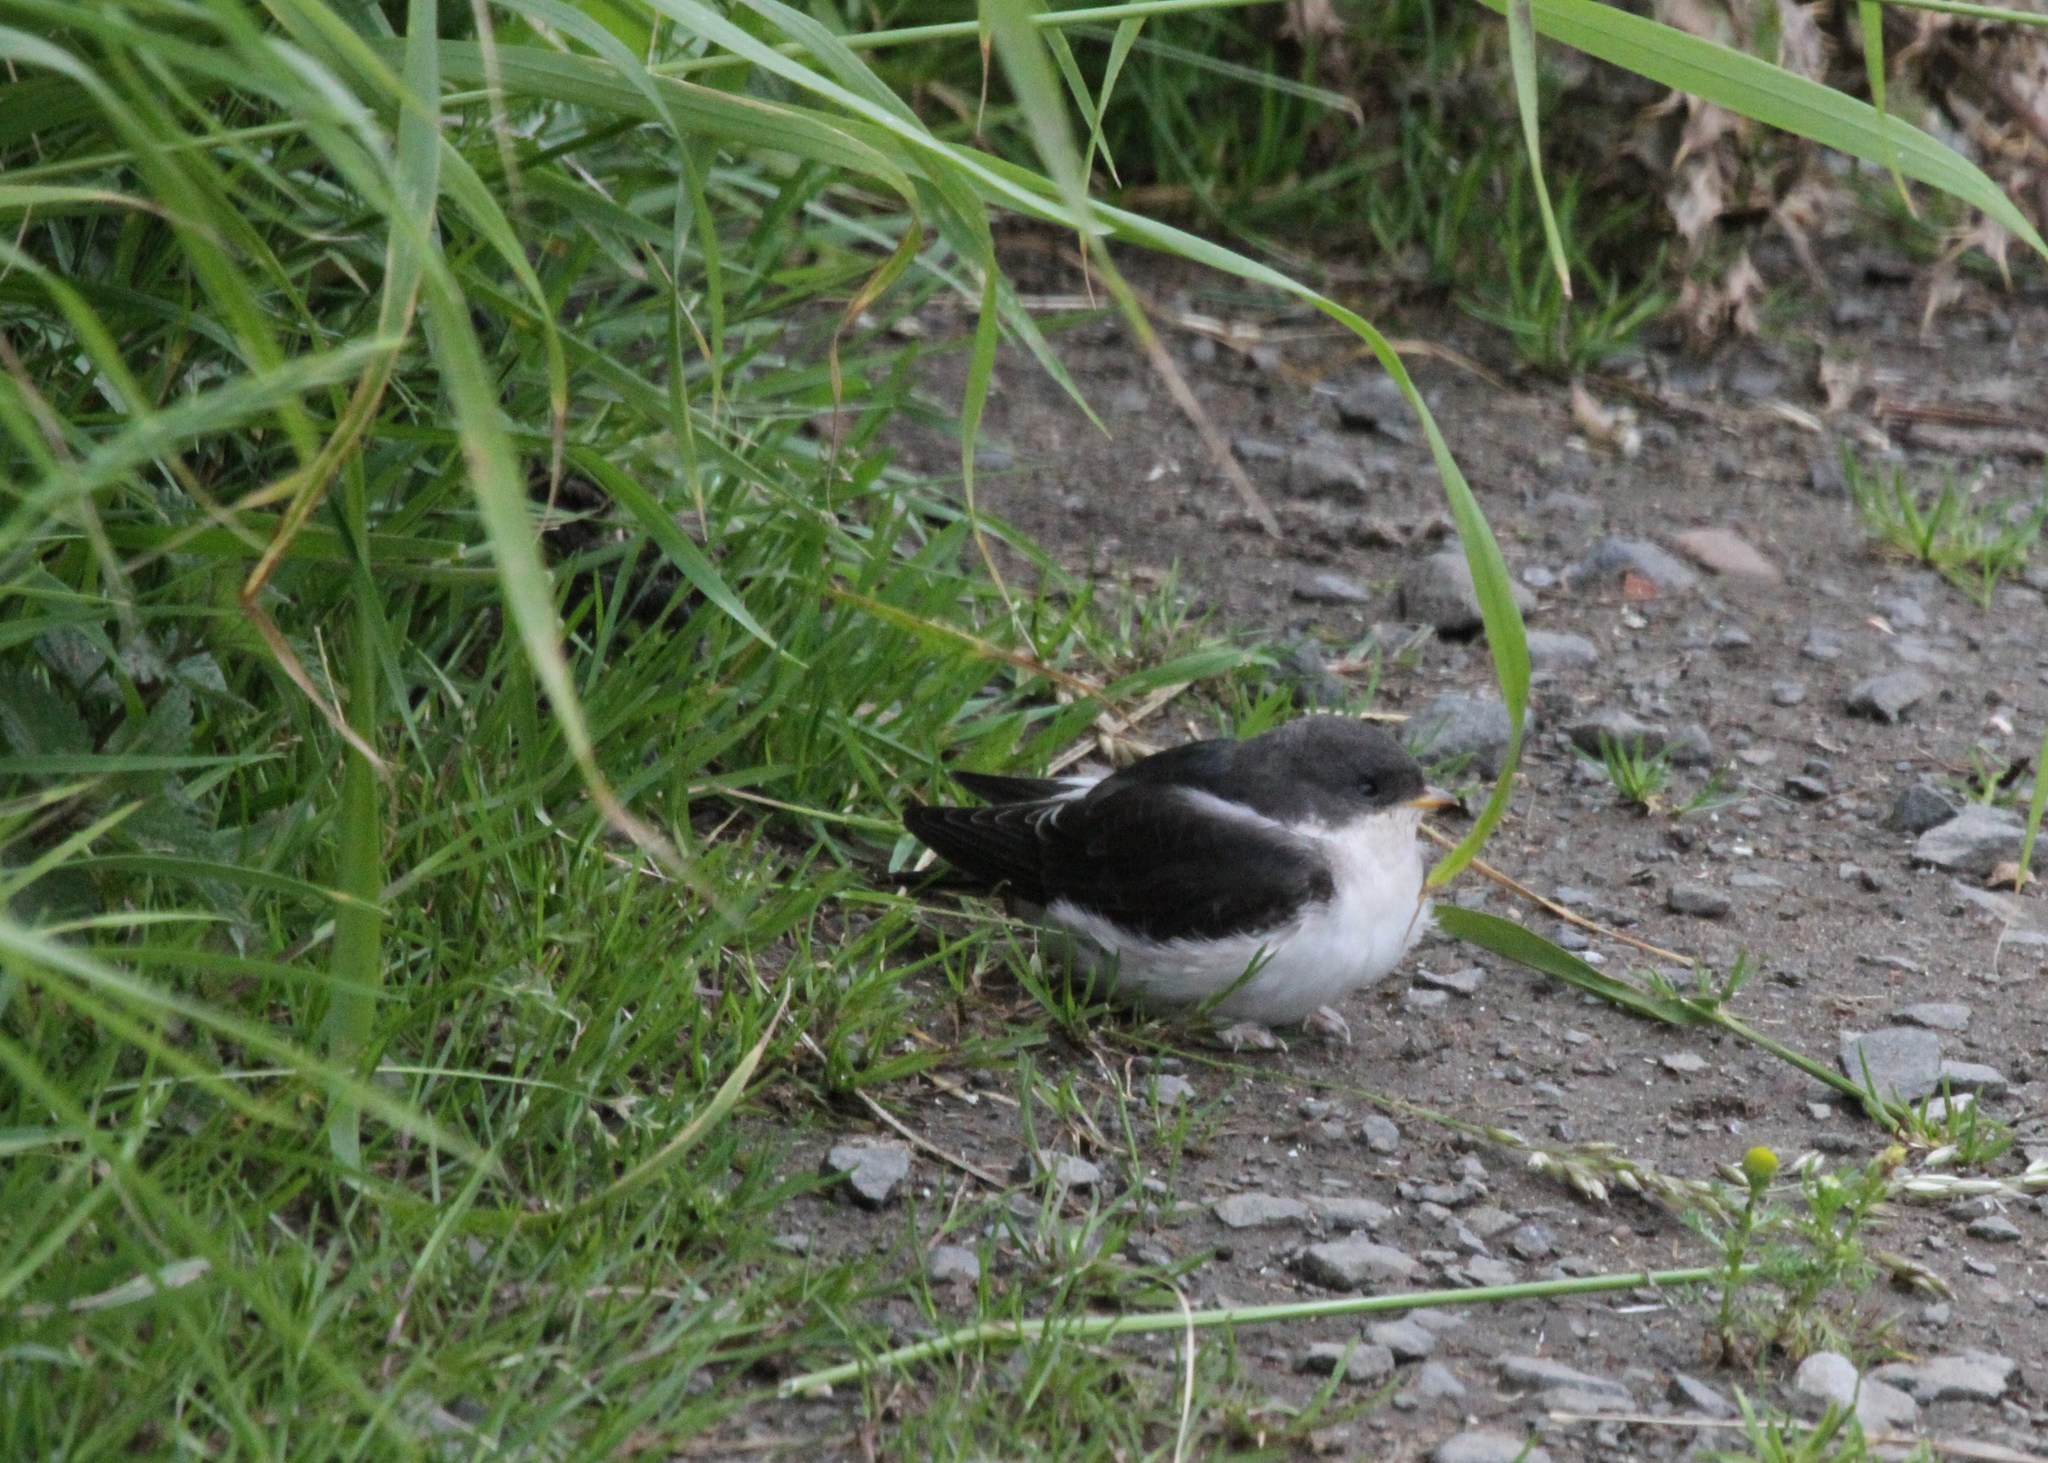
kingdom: Animalia
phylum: Chordata
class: Aves
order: Passeriformes
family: Hirundinidae
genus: Delichon
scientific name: Delichon urbicum
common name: Common house martin
